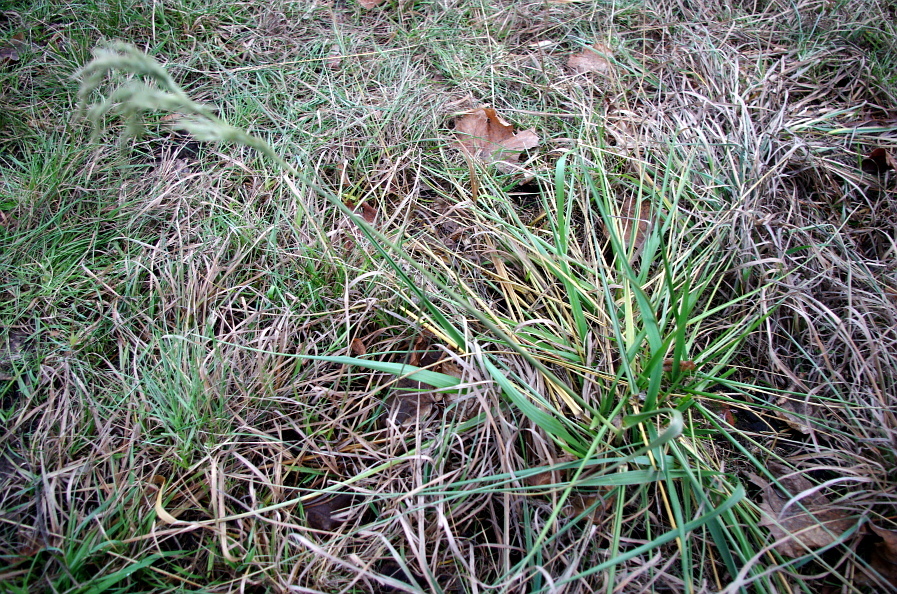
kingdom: Plantae
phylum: Tracheophyta
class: Liliopsida
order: Poales
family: Poaceae
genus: Lolium
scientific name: Lolium arundinaceum
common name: Reed fescue
